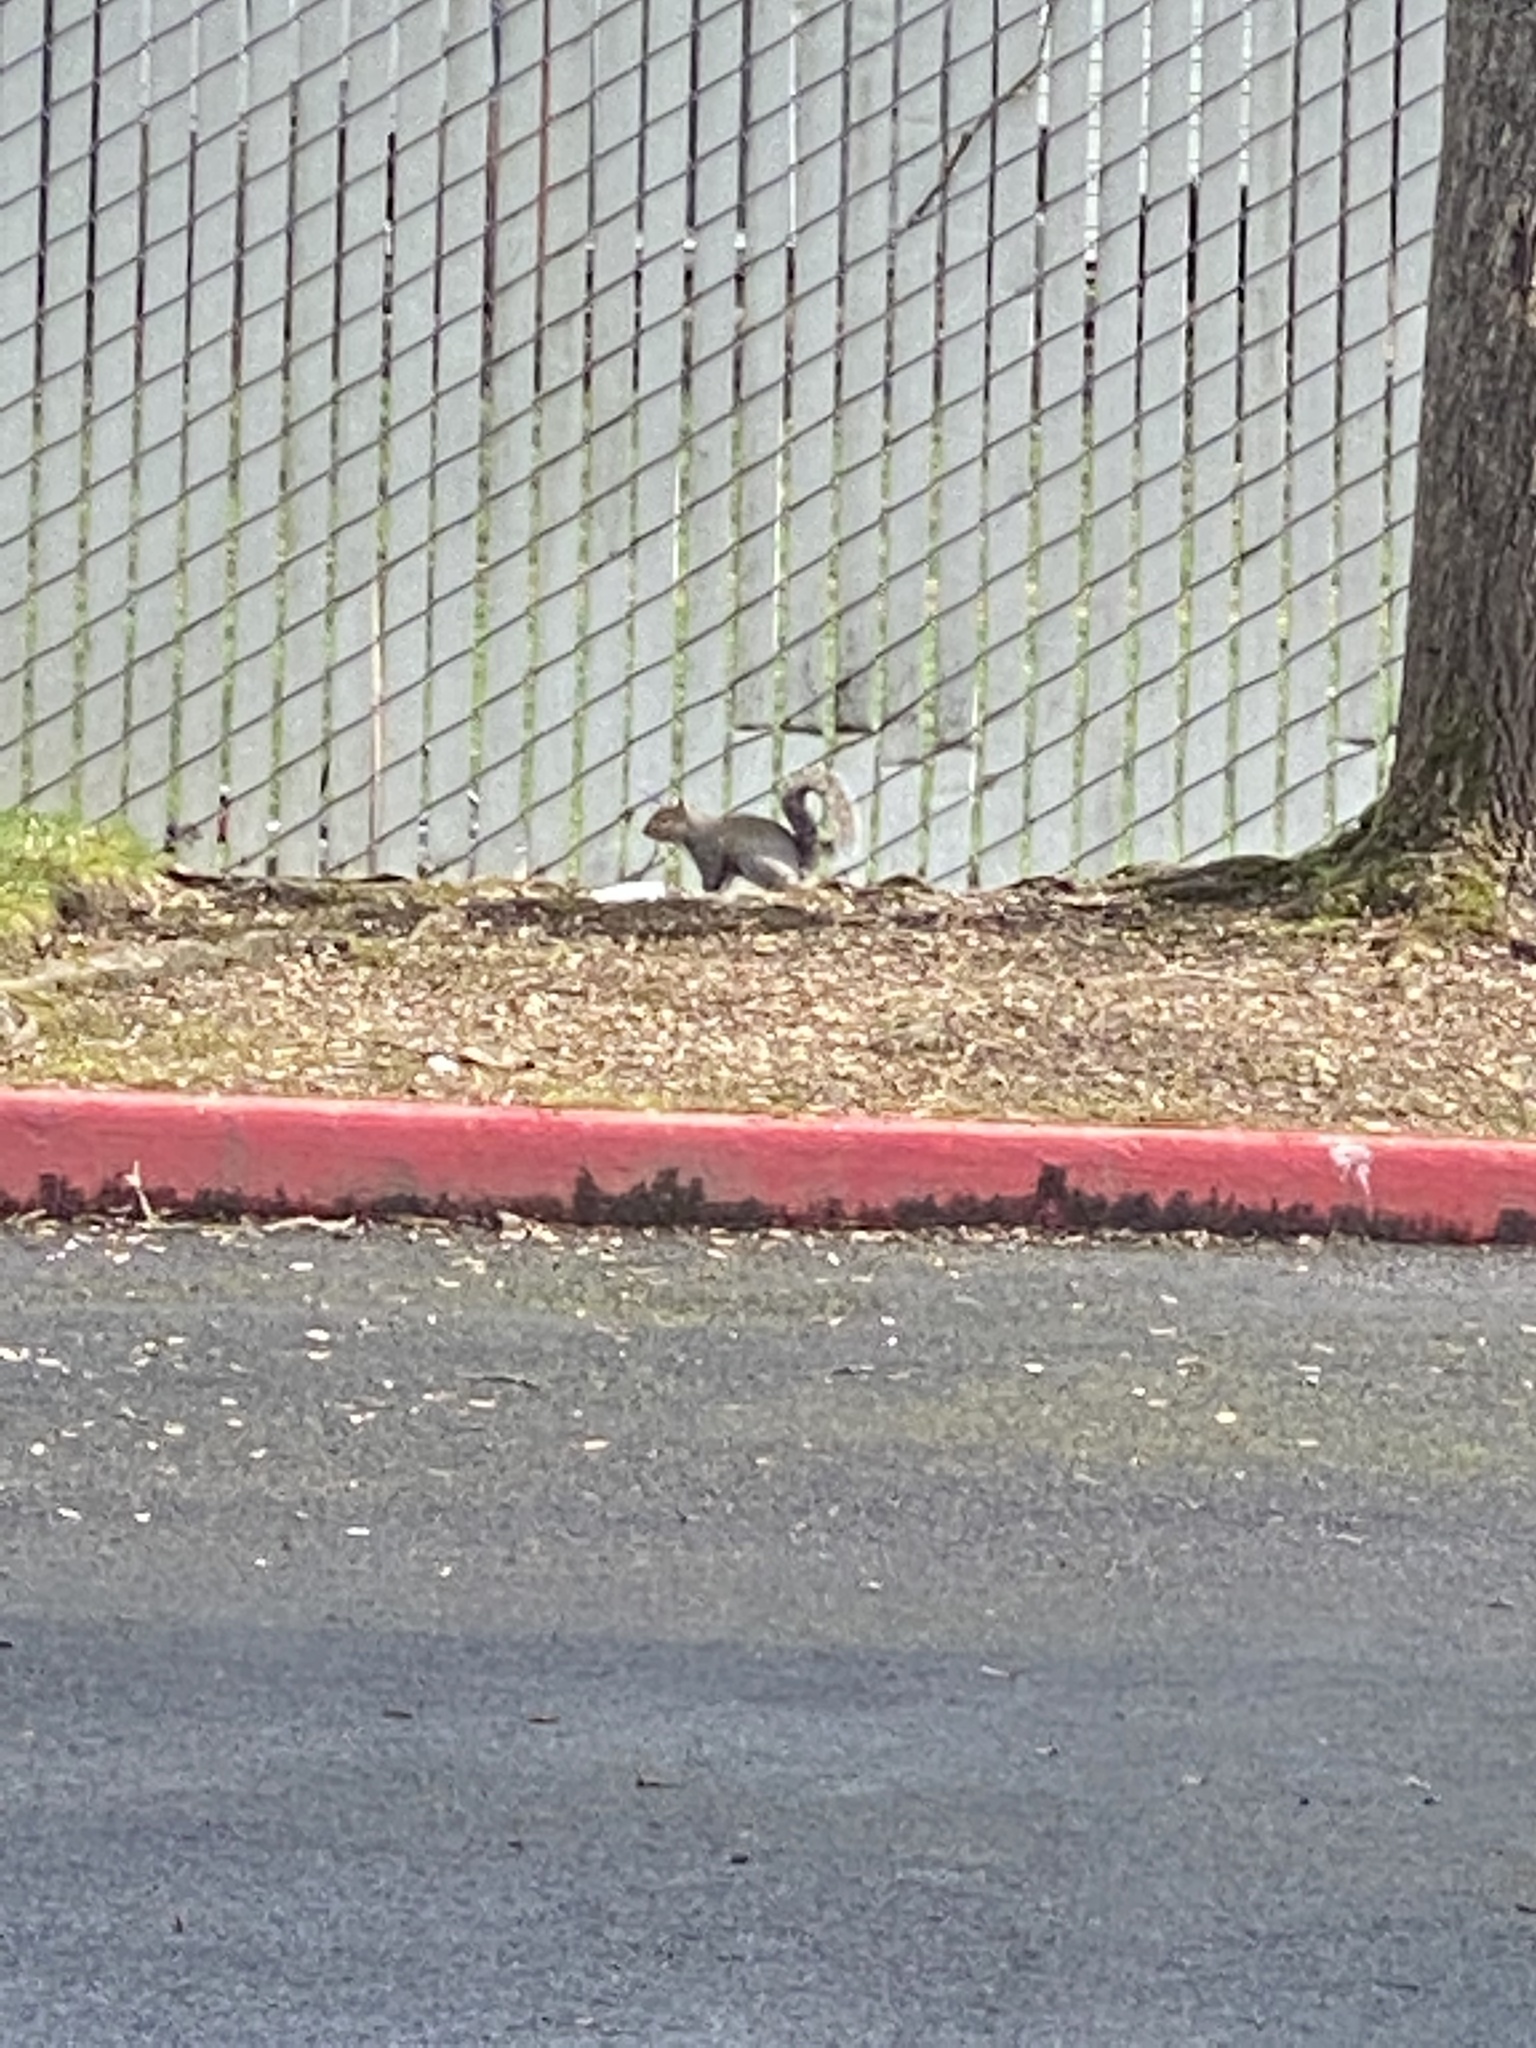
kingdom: Animalia
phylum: Chordata
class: Mammalia
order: Rodentia
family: Sciuridae
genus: Sciurus
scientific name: Sciurus carolinensis
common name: Eastern gray squirrel
